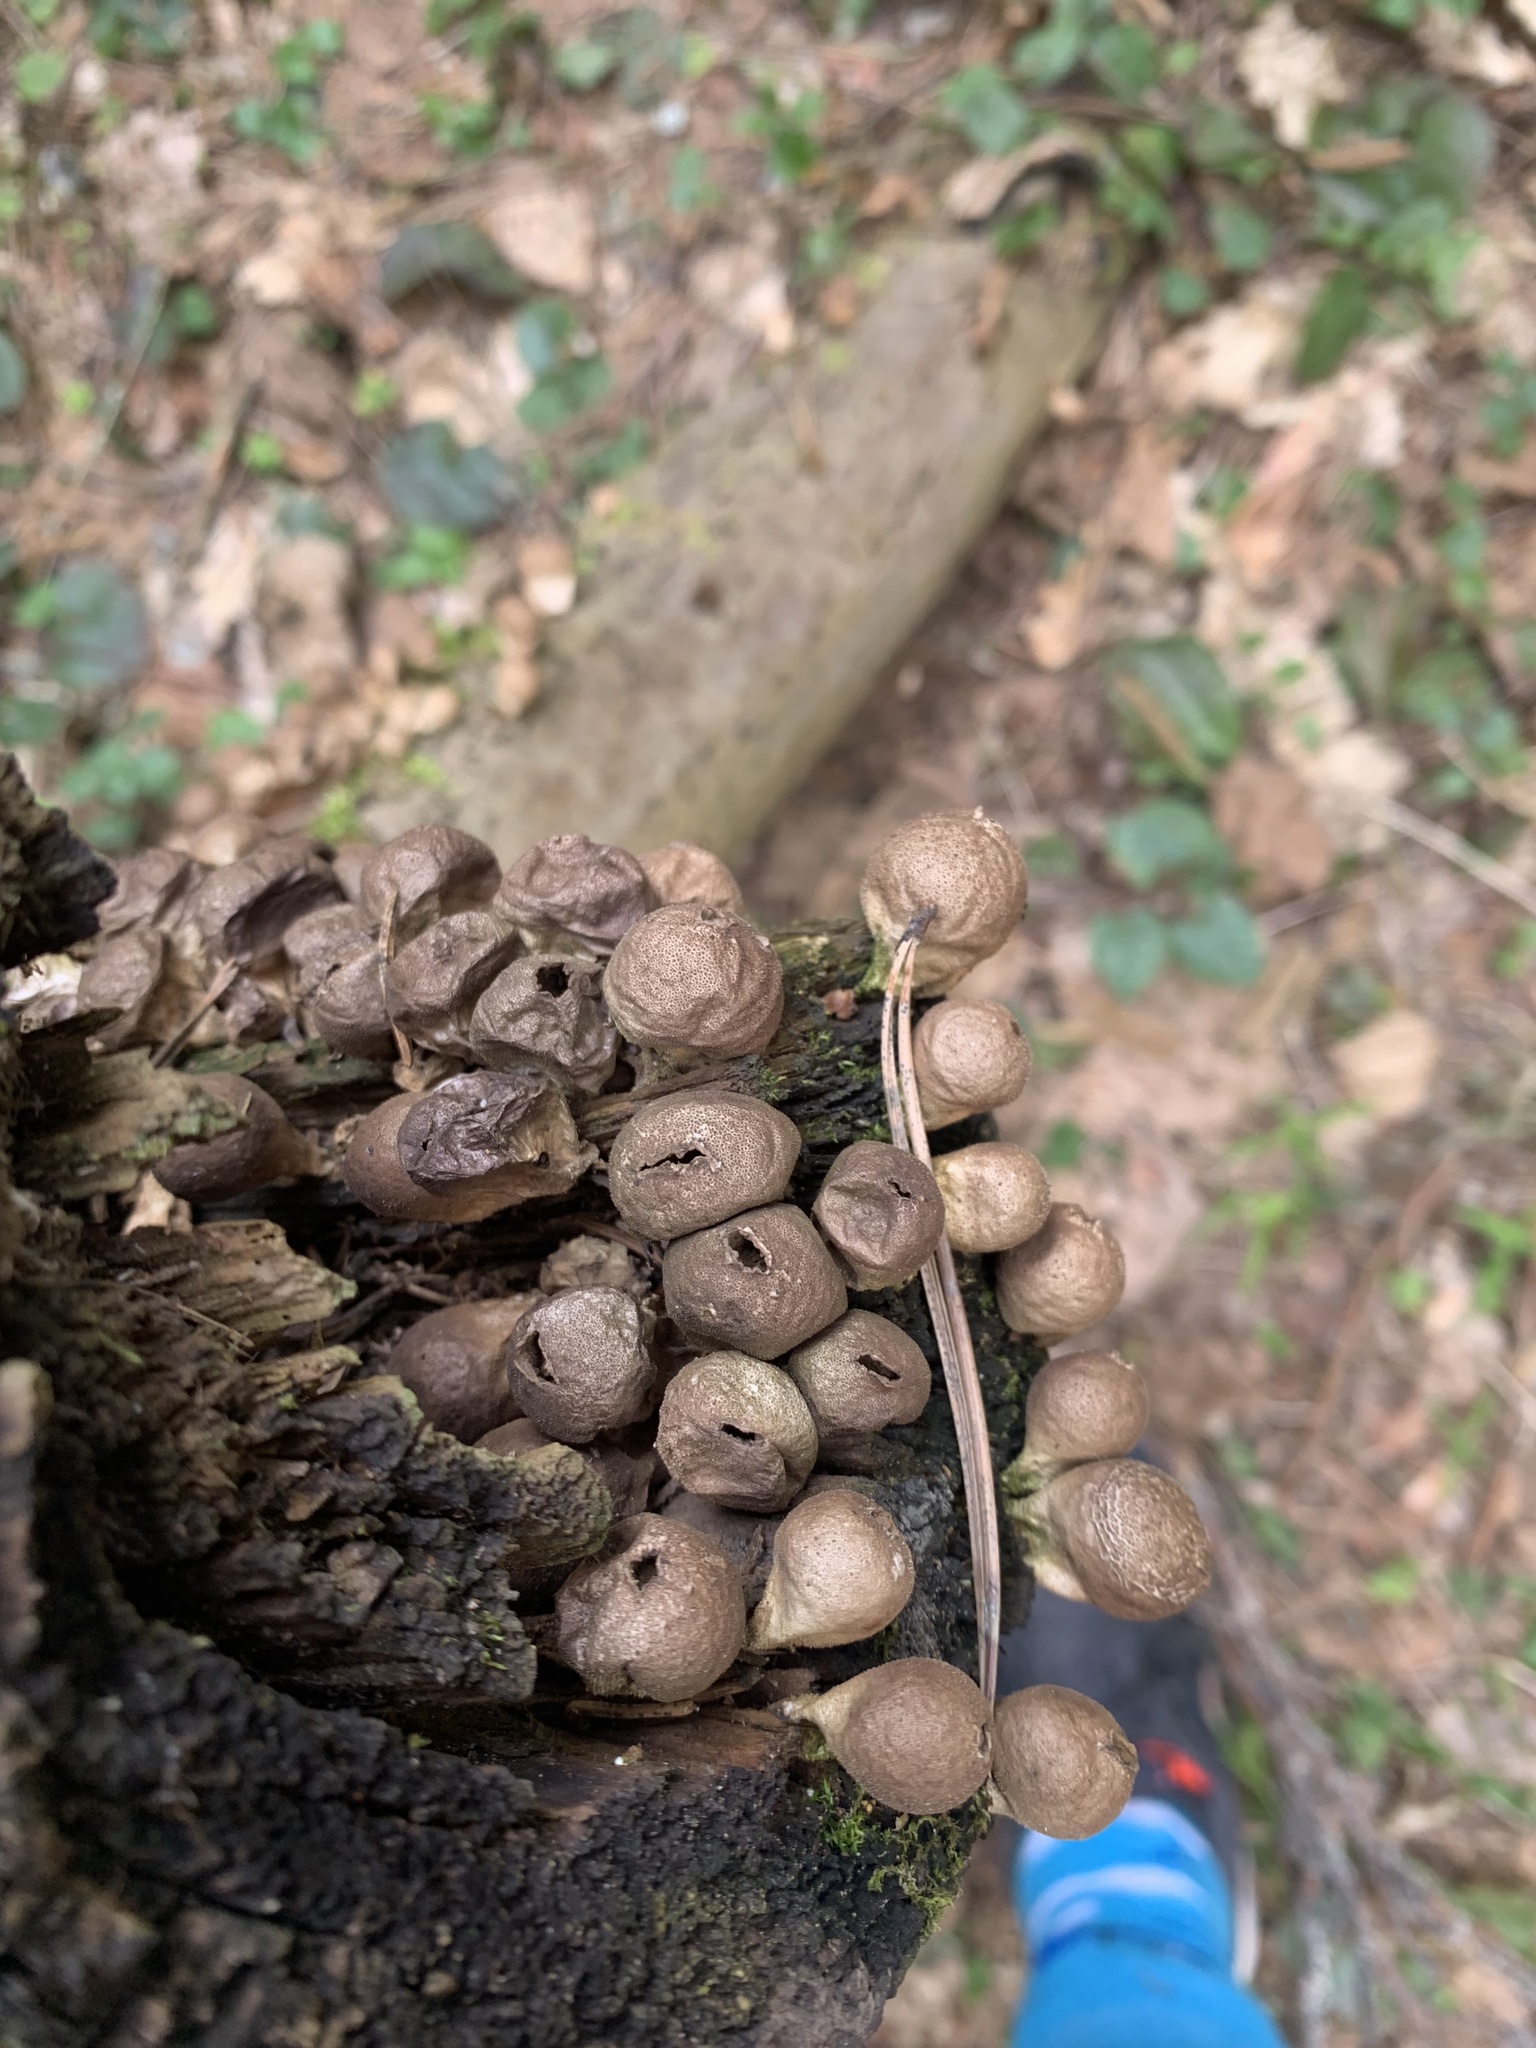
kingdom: Fungi
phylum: Basidiomycota
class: Agaricomycetes
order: Agaricales
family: Lycoperdaceae
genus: Apioperdon
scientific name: Apioperdon pyriforme
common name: Pear-shaped puffball
